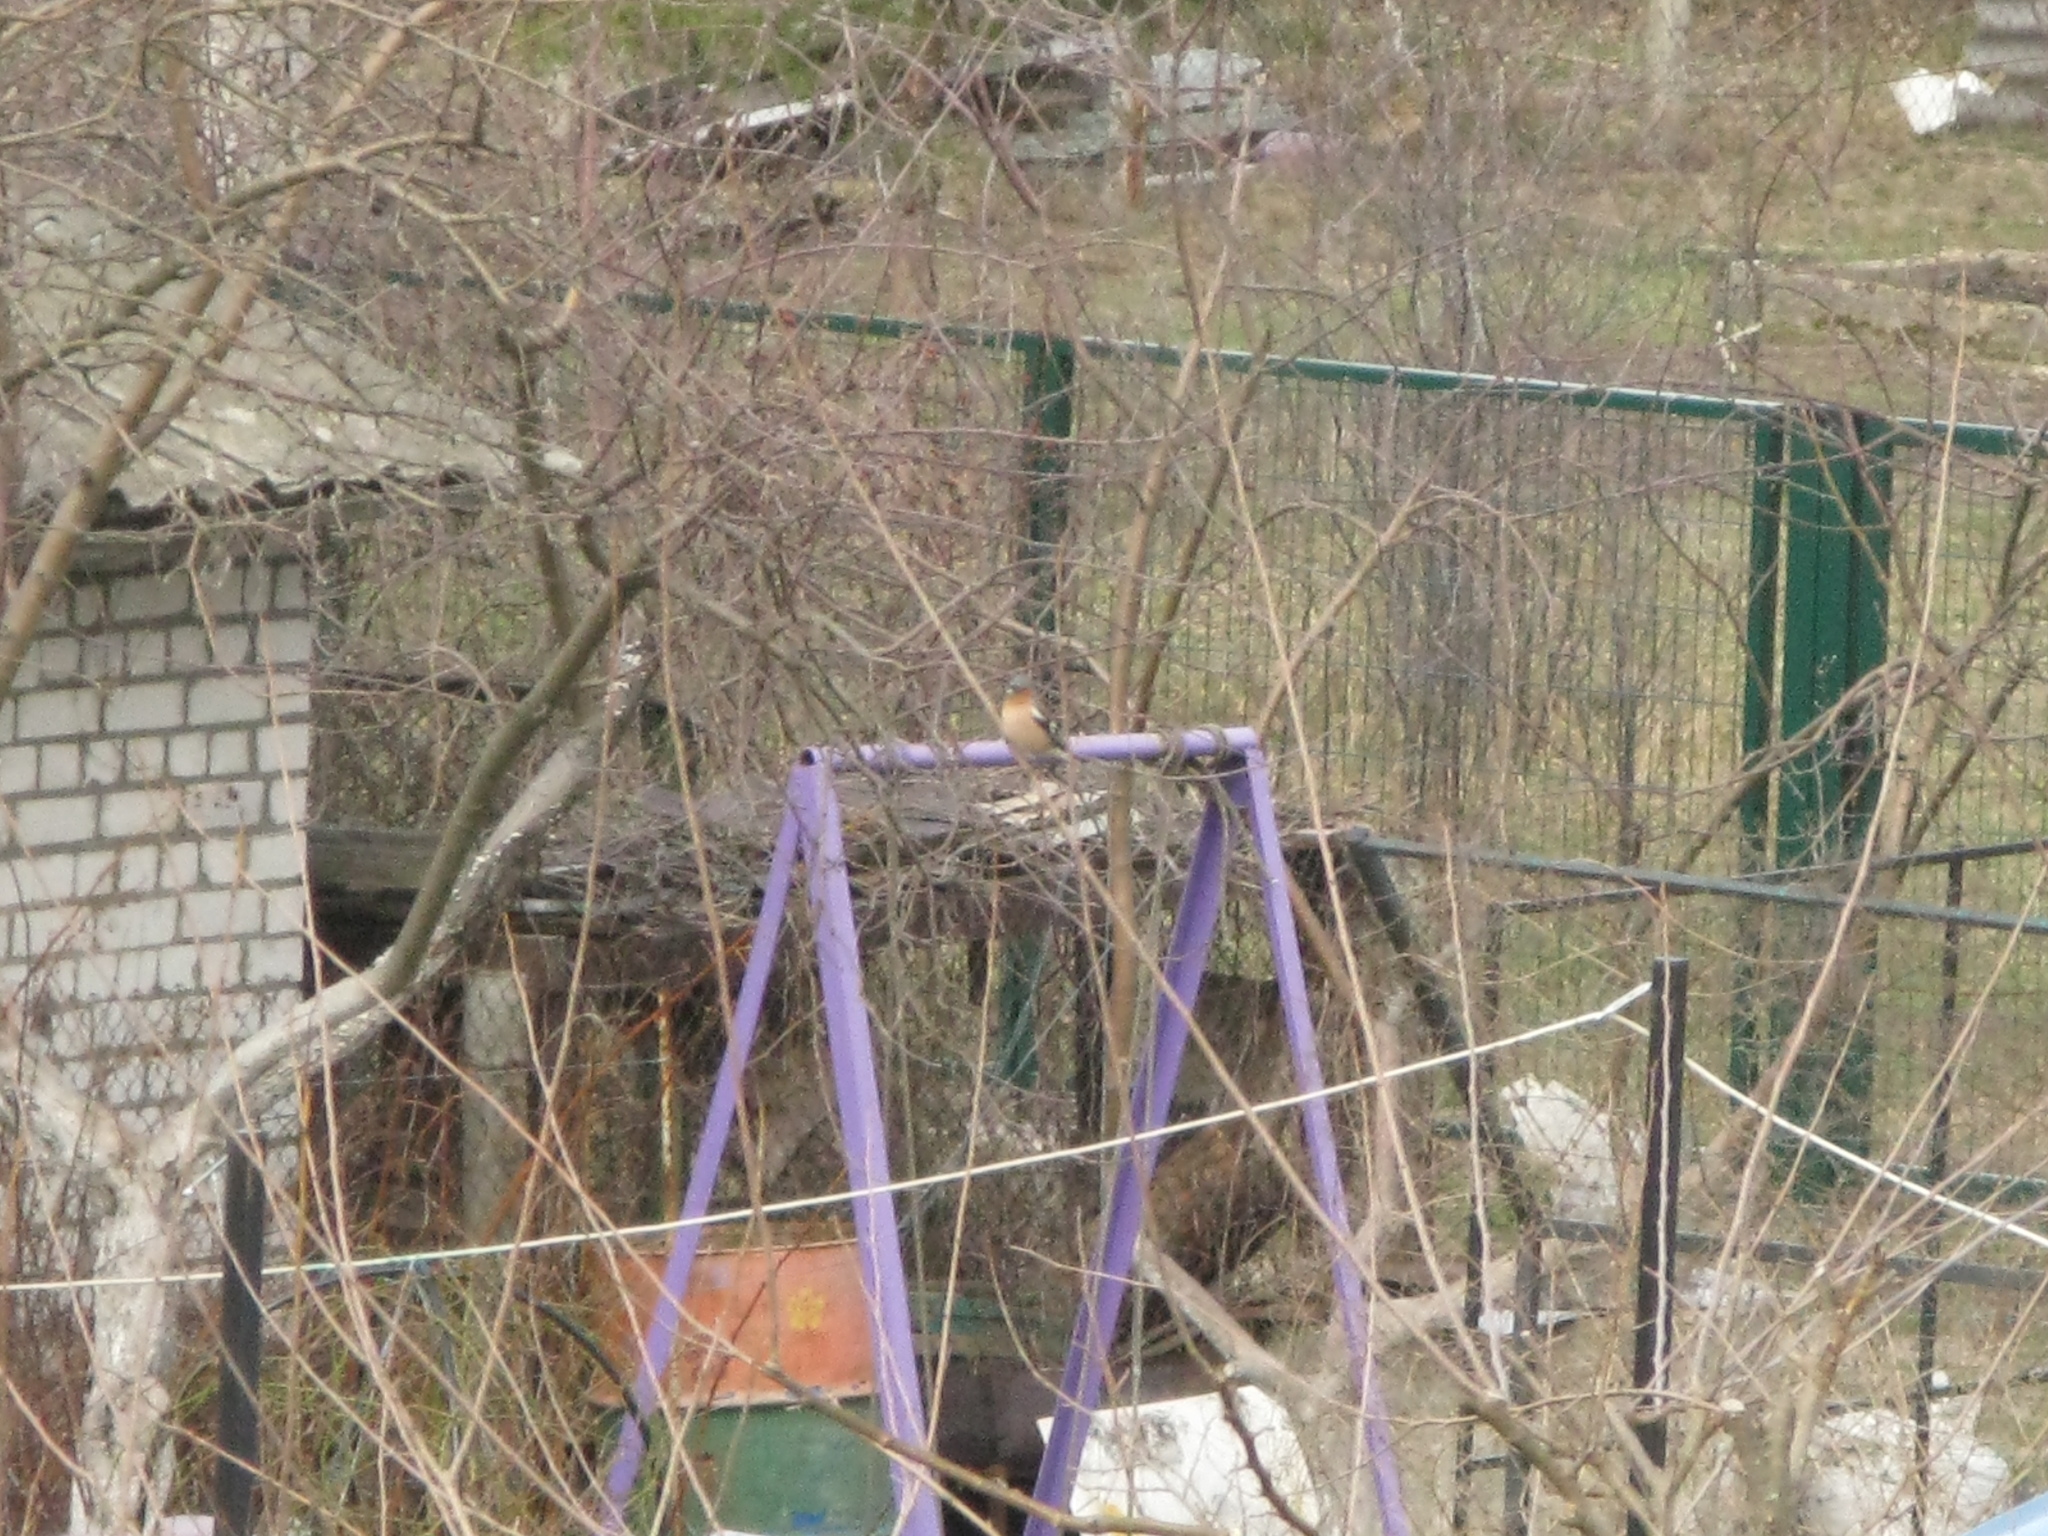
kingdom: Animalia
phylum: Chordata
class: Aves
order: Passeriformes
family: Fringillidae
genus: Fringilla
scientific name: Fringilla coelebs
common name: Common chaffinch
